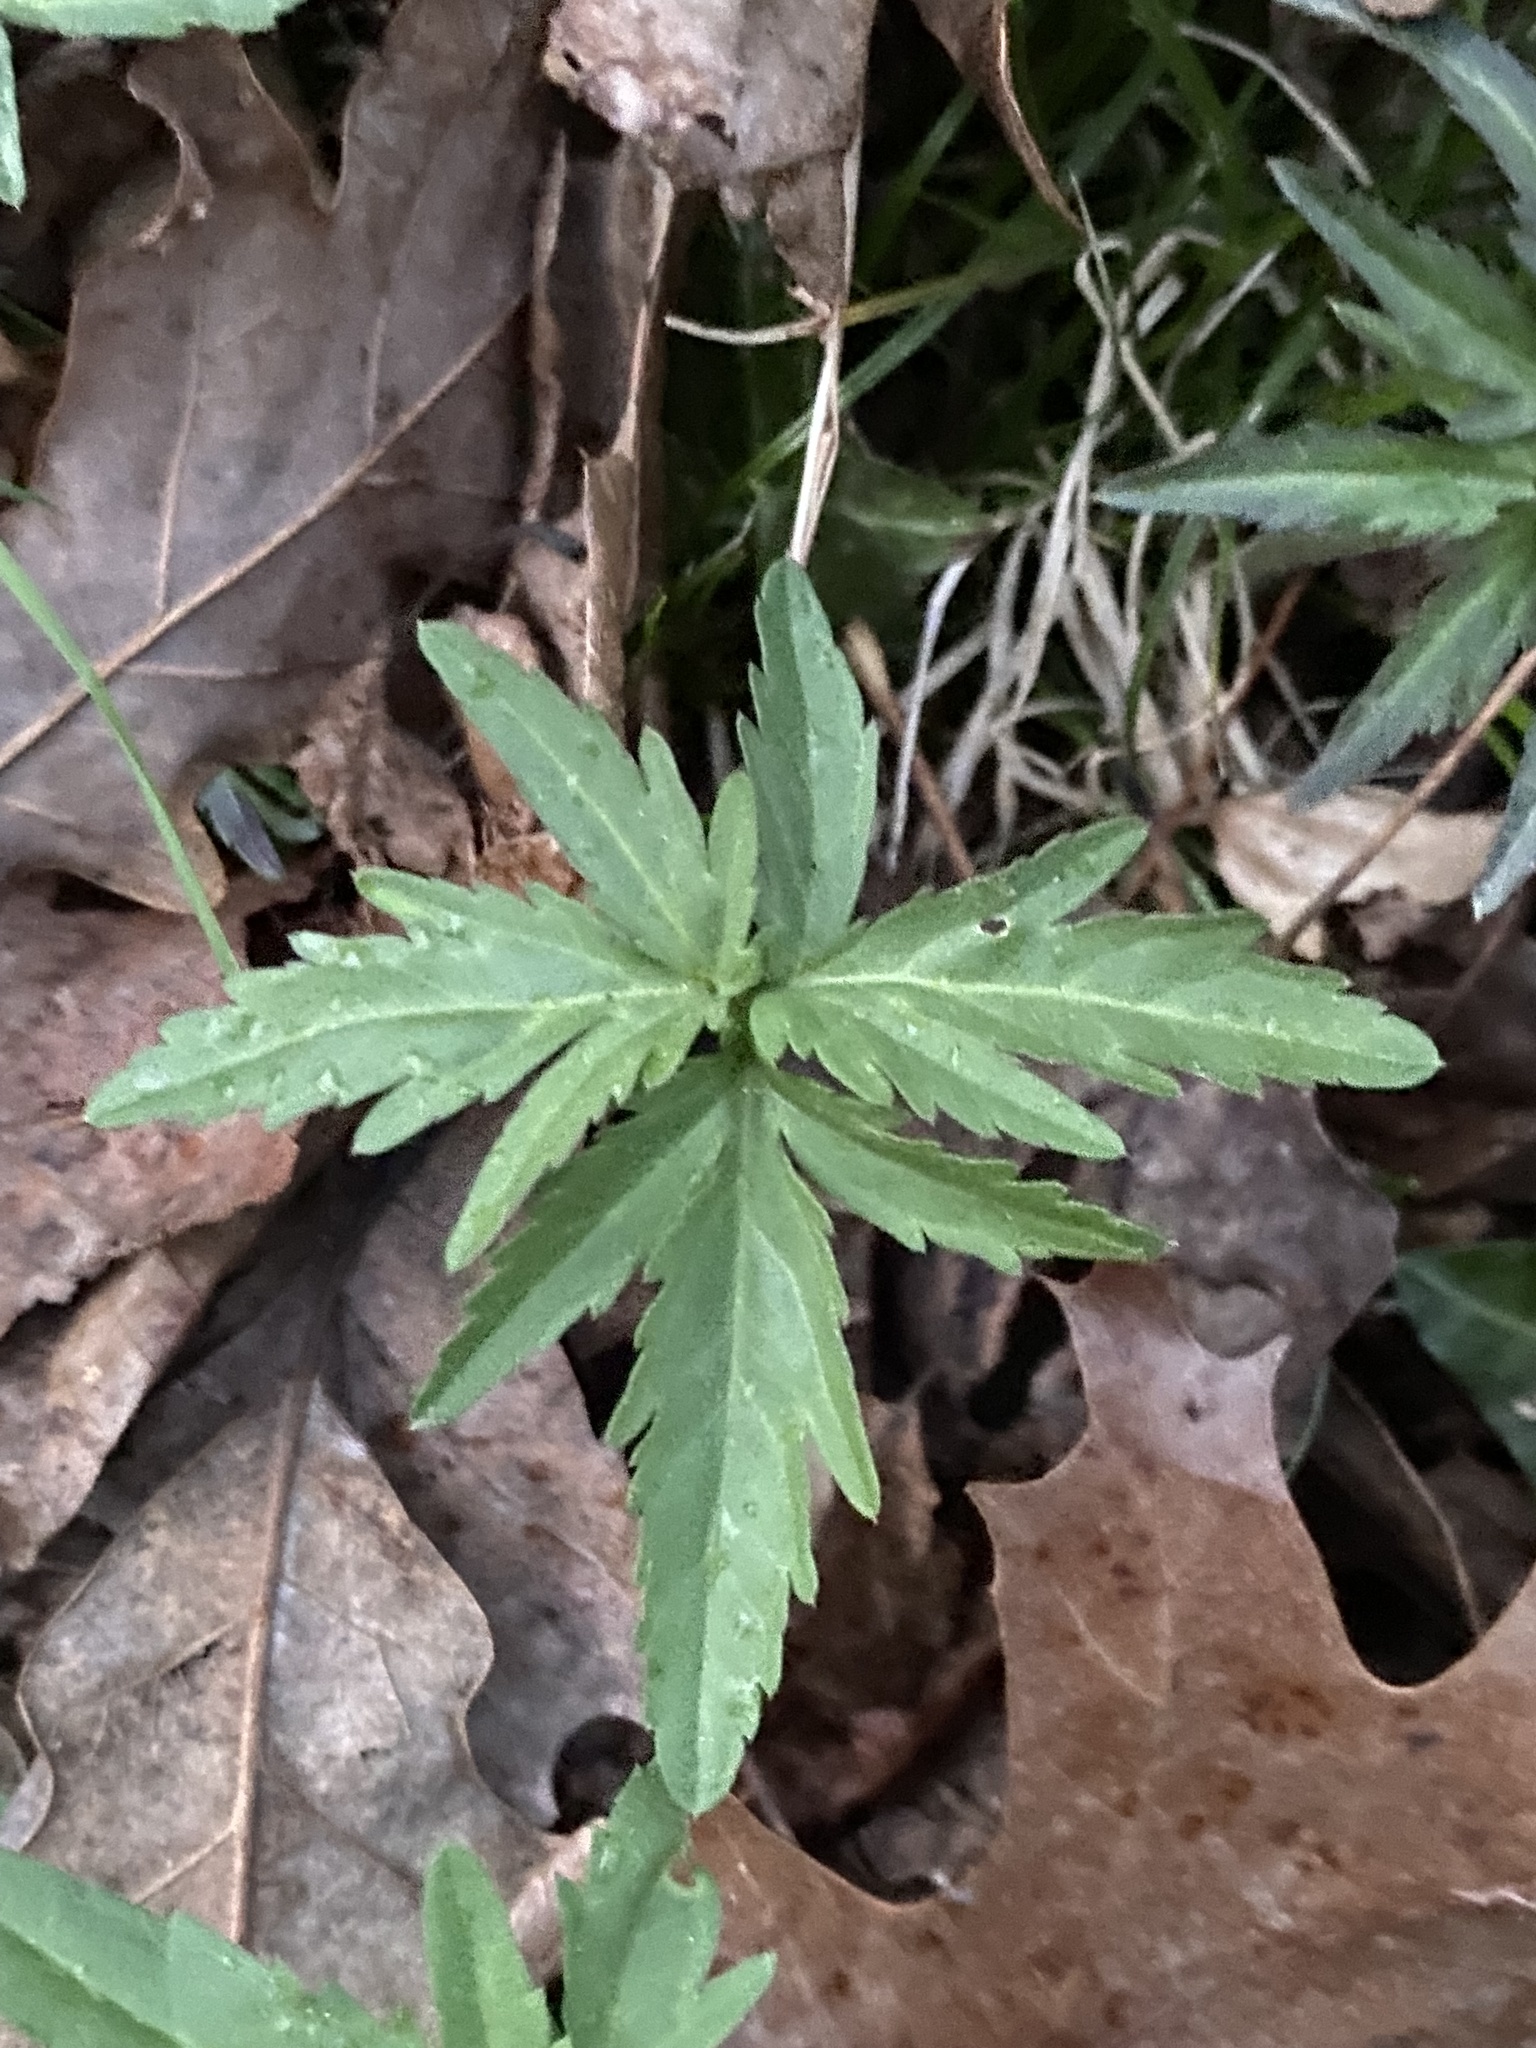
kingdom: Plantae
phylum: Tracheophyta
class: Magnoliopsida
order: Brassicales
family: Brassicaceae
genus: Cardamine
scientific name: Cardamine concatenata
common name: Cut-leaf toothcup
